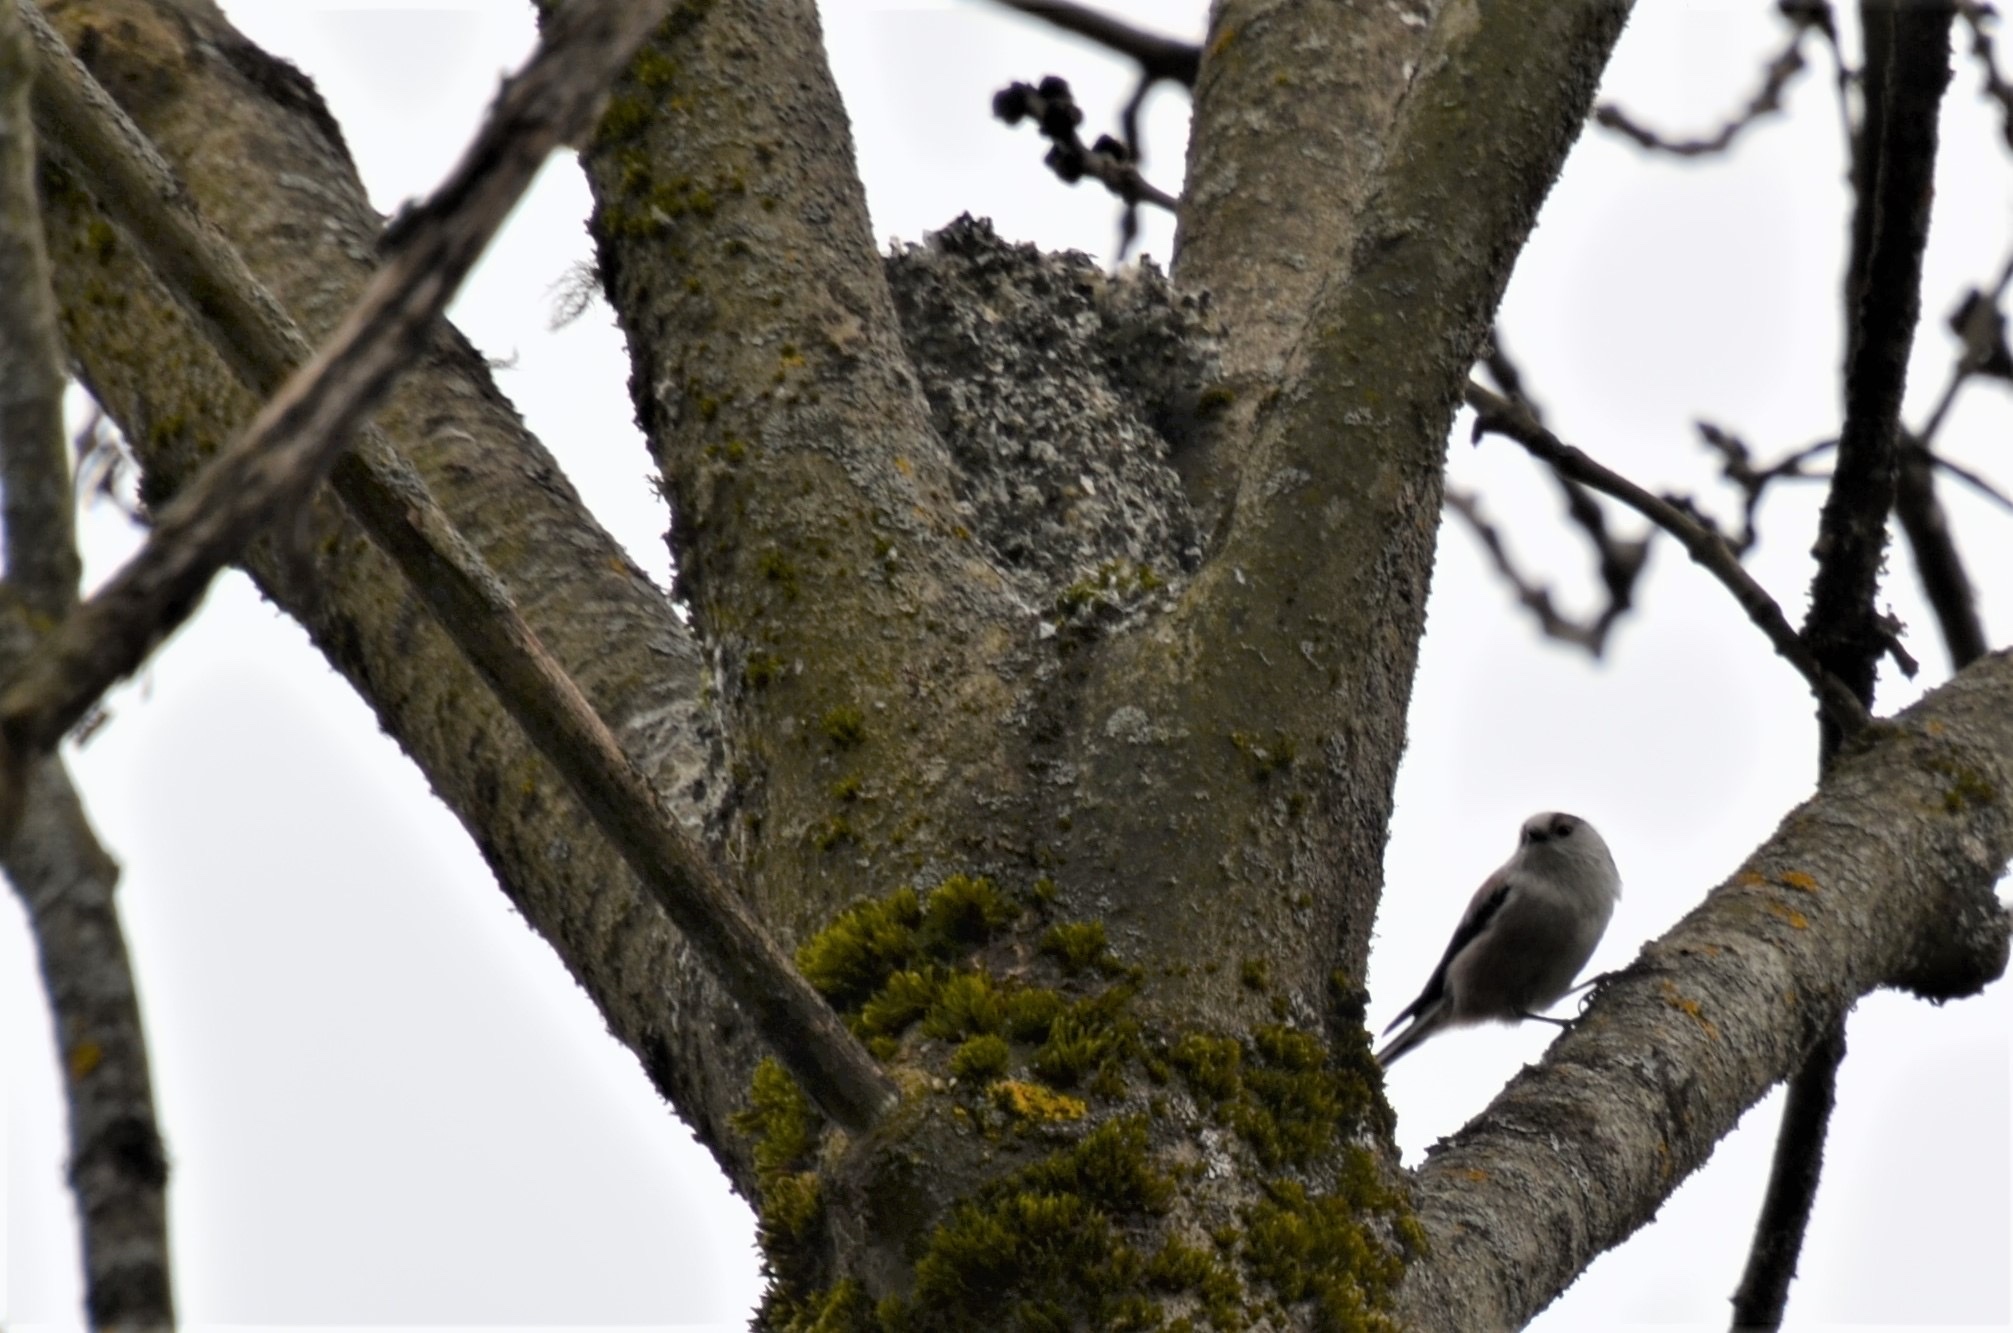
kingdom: Animalia
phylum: Chordata
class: Aves
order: Passeriformes
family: Aegithalidae
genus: Aegithalos
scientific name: Aegithalos caudatus
